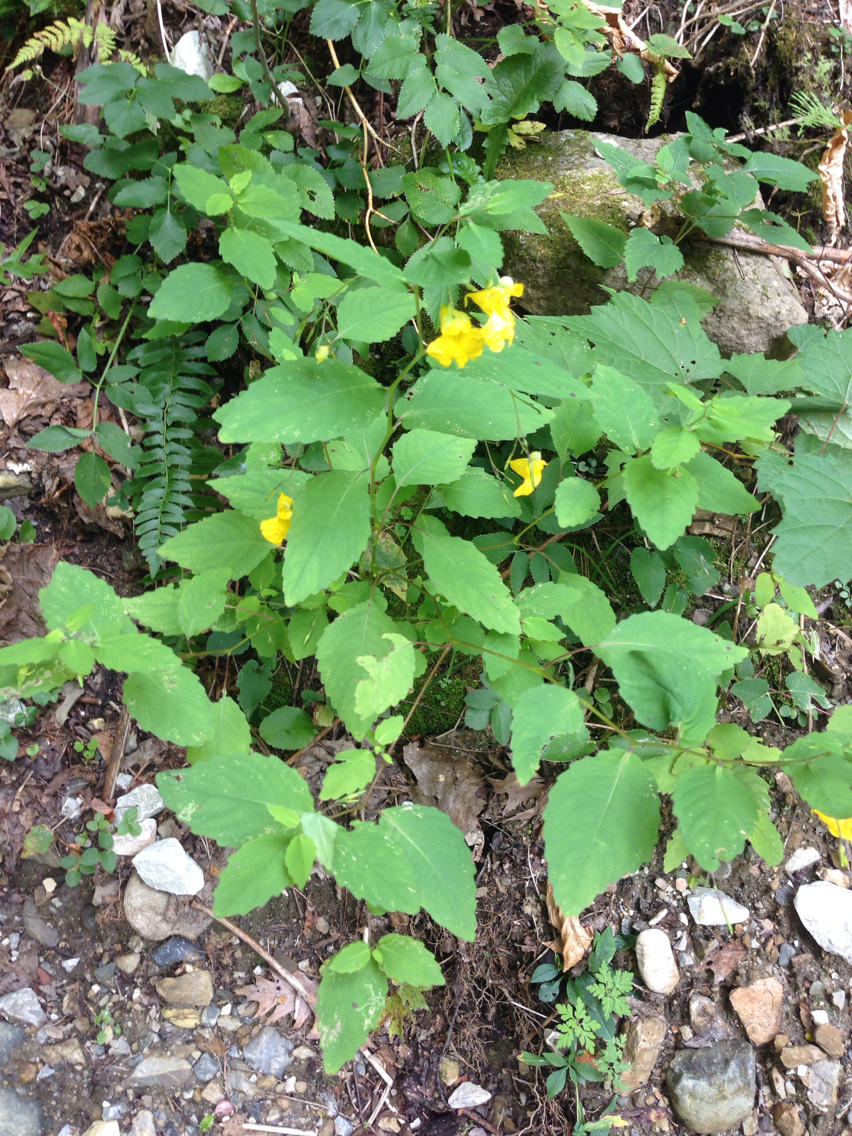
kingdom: Plantae
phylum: Tracheophyta
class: Magnoliopsida
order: Ericales
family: Balsaminaceae
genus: Impatiens
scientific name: Impatiens pallida
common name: Pale snapweed
